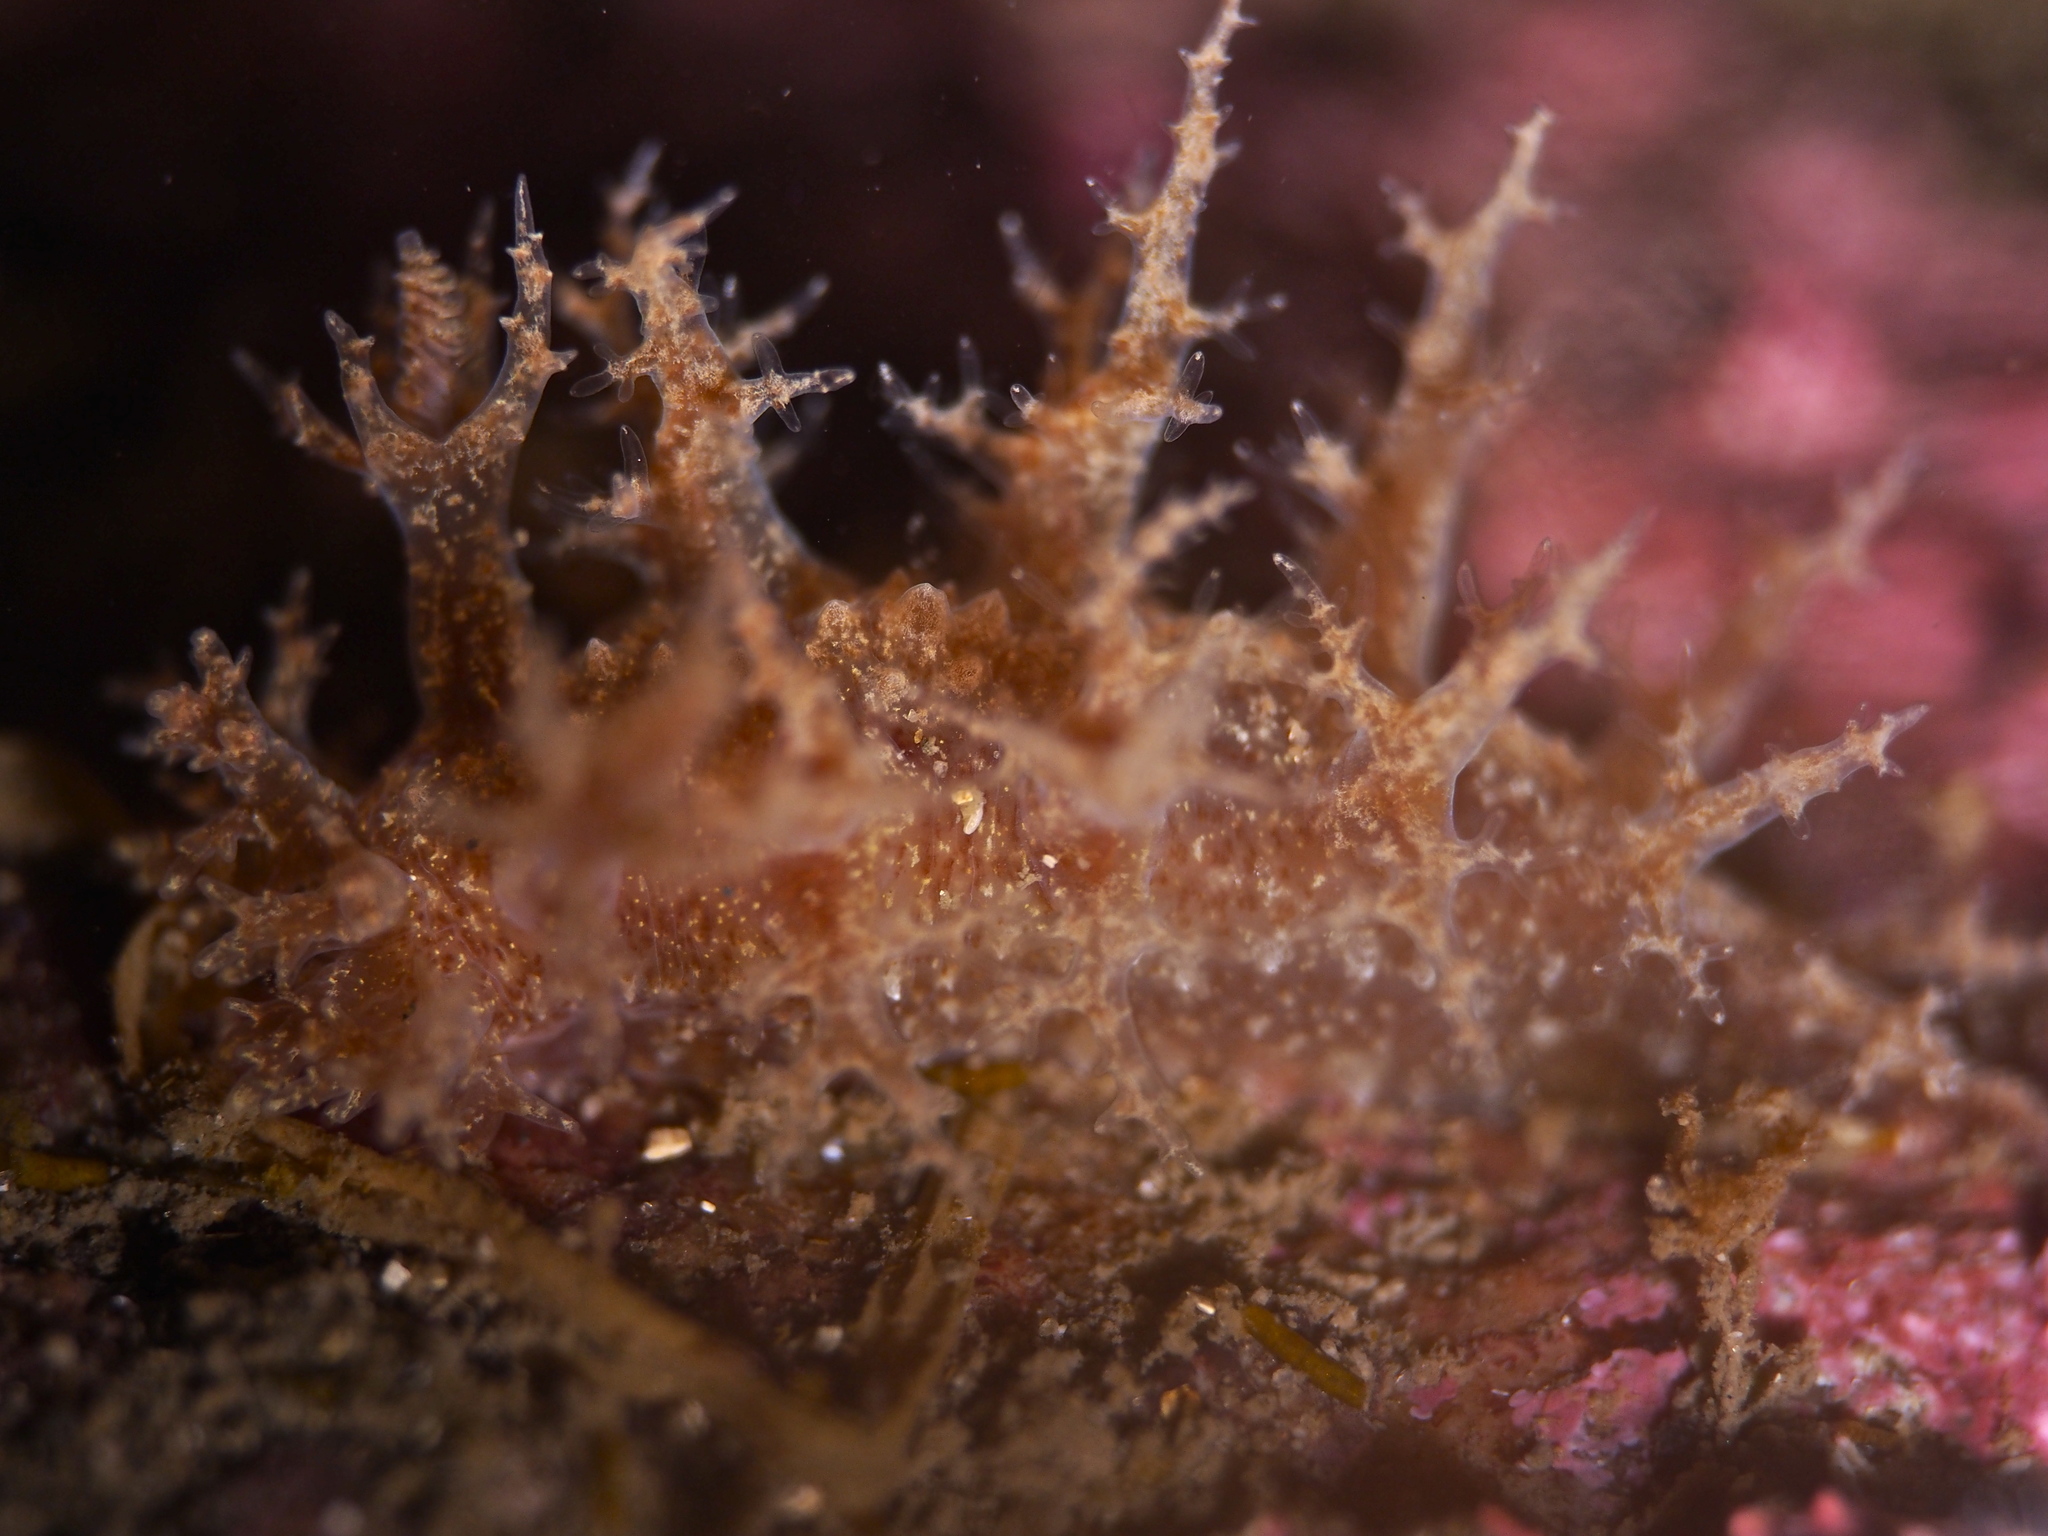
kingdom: Animalia
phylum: Mollusca
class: Gastropoda
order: Nudibranchia
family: Dendronotidae
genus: Dendronotus
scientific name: Dendronotus frondosus
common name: Bushy-backed nudibranch
